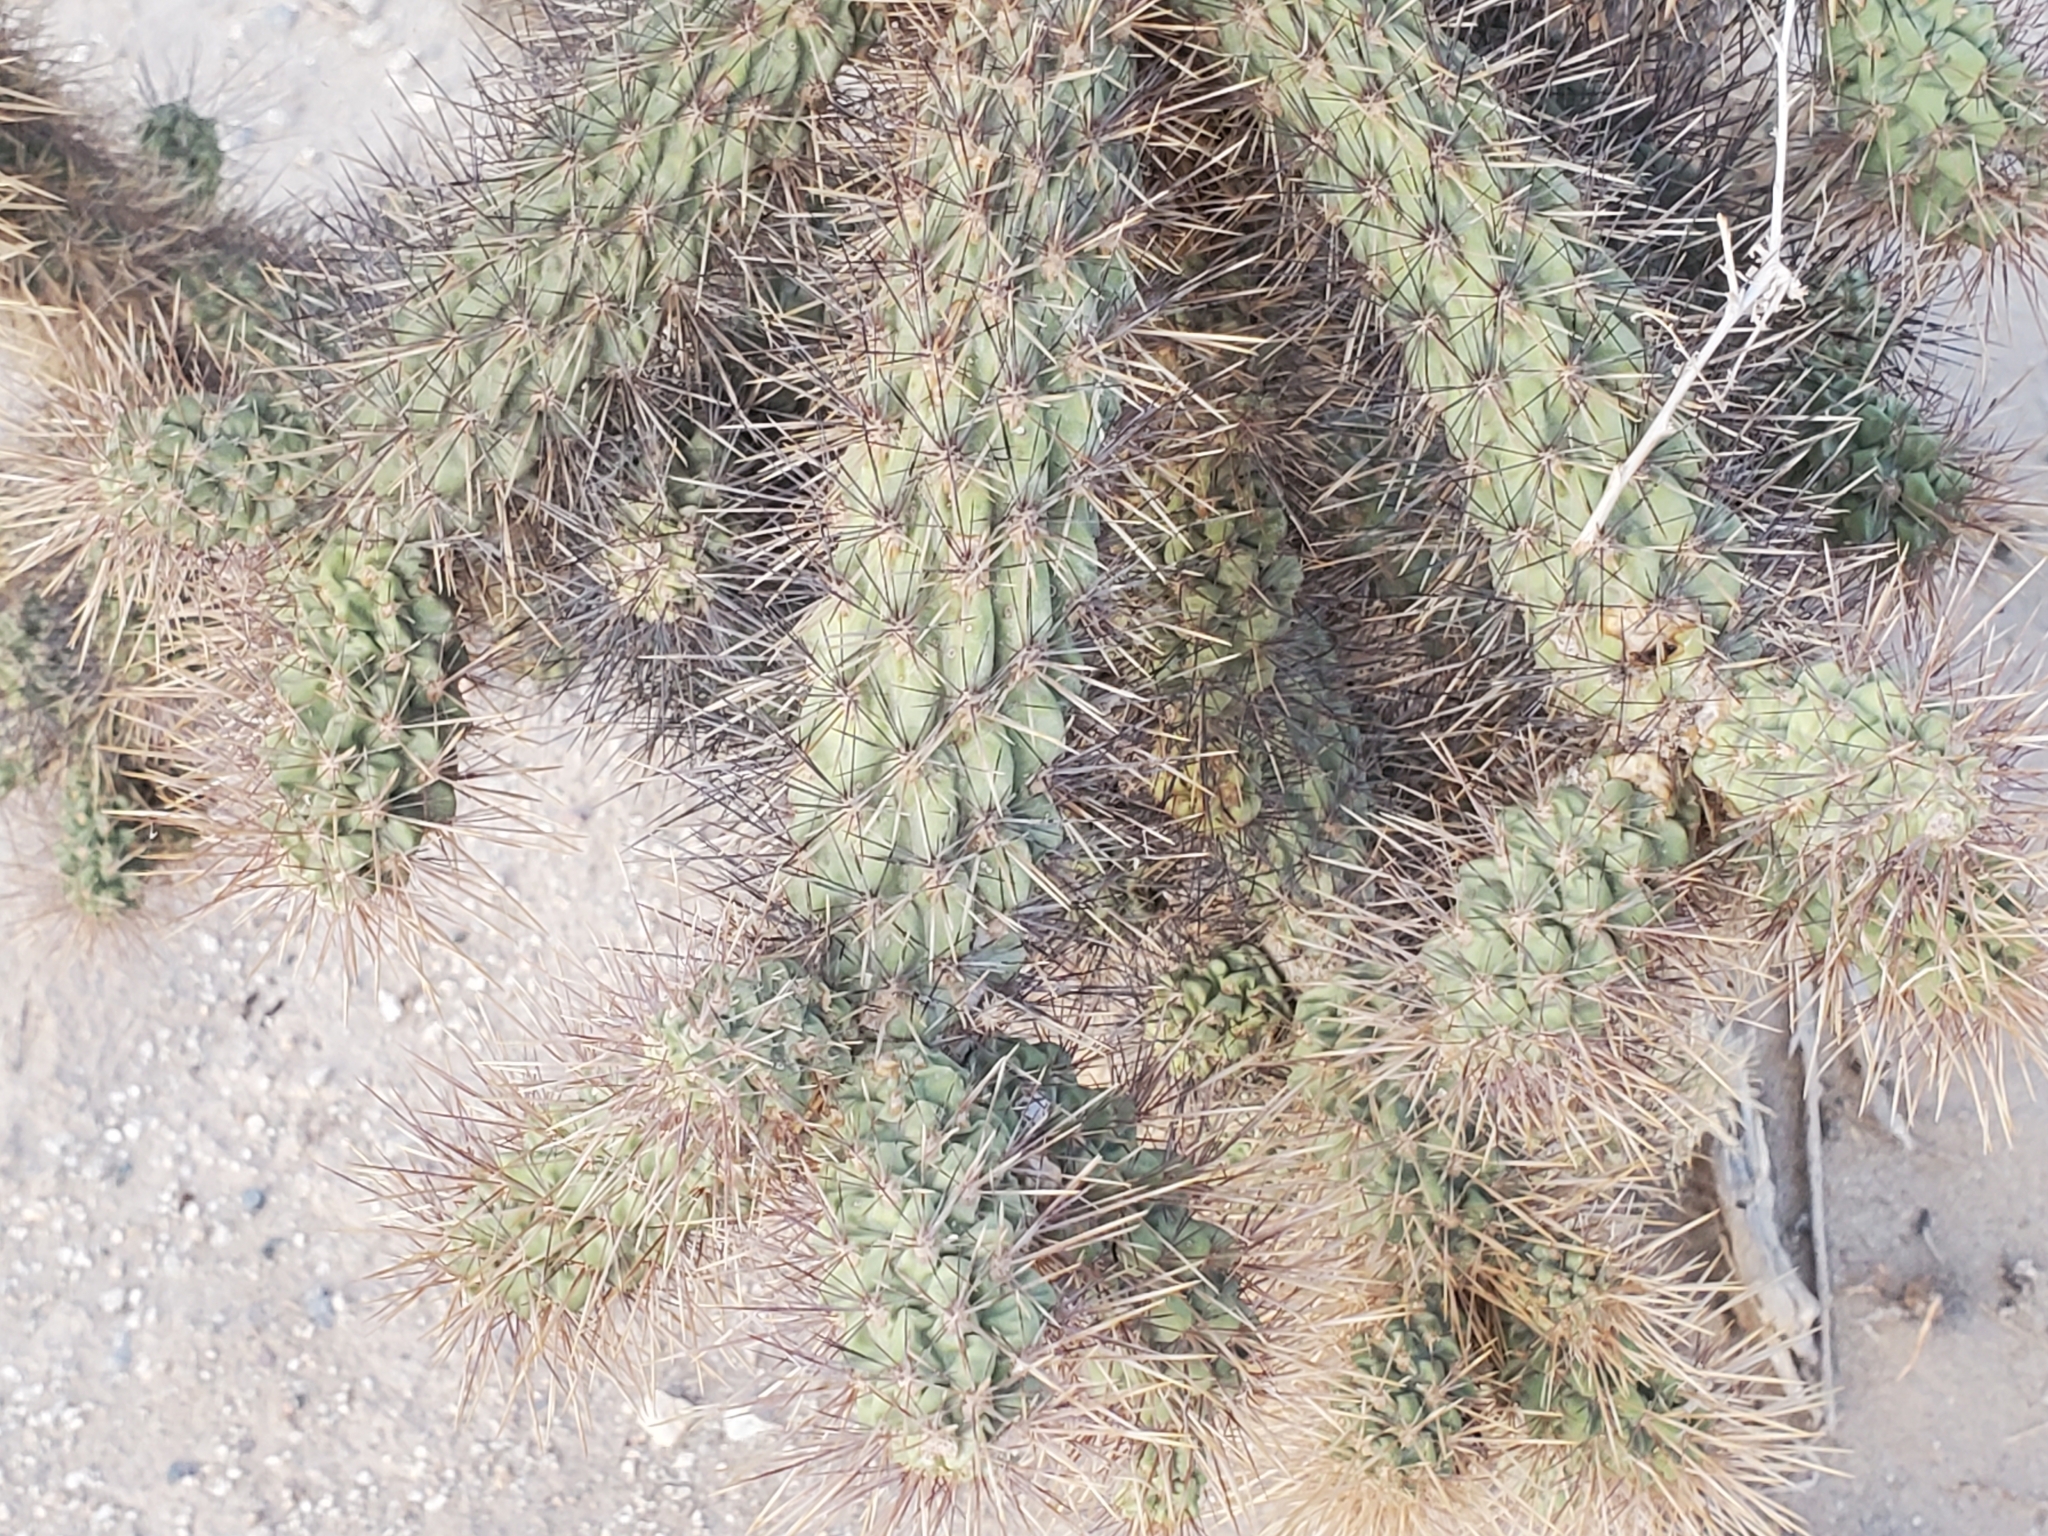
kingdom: Plantae
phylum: Tracheophyta
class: Magnoliopsida
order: Caryophyllales
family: Cactaceae
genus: Cylindropuntia
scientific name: Cylindropuntia munzii
